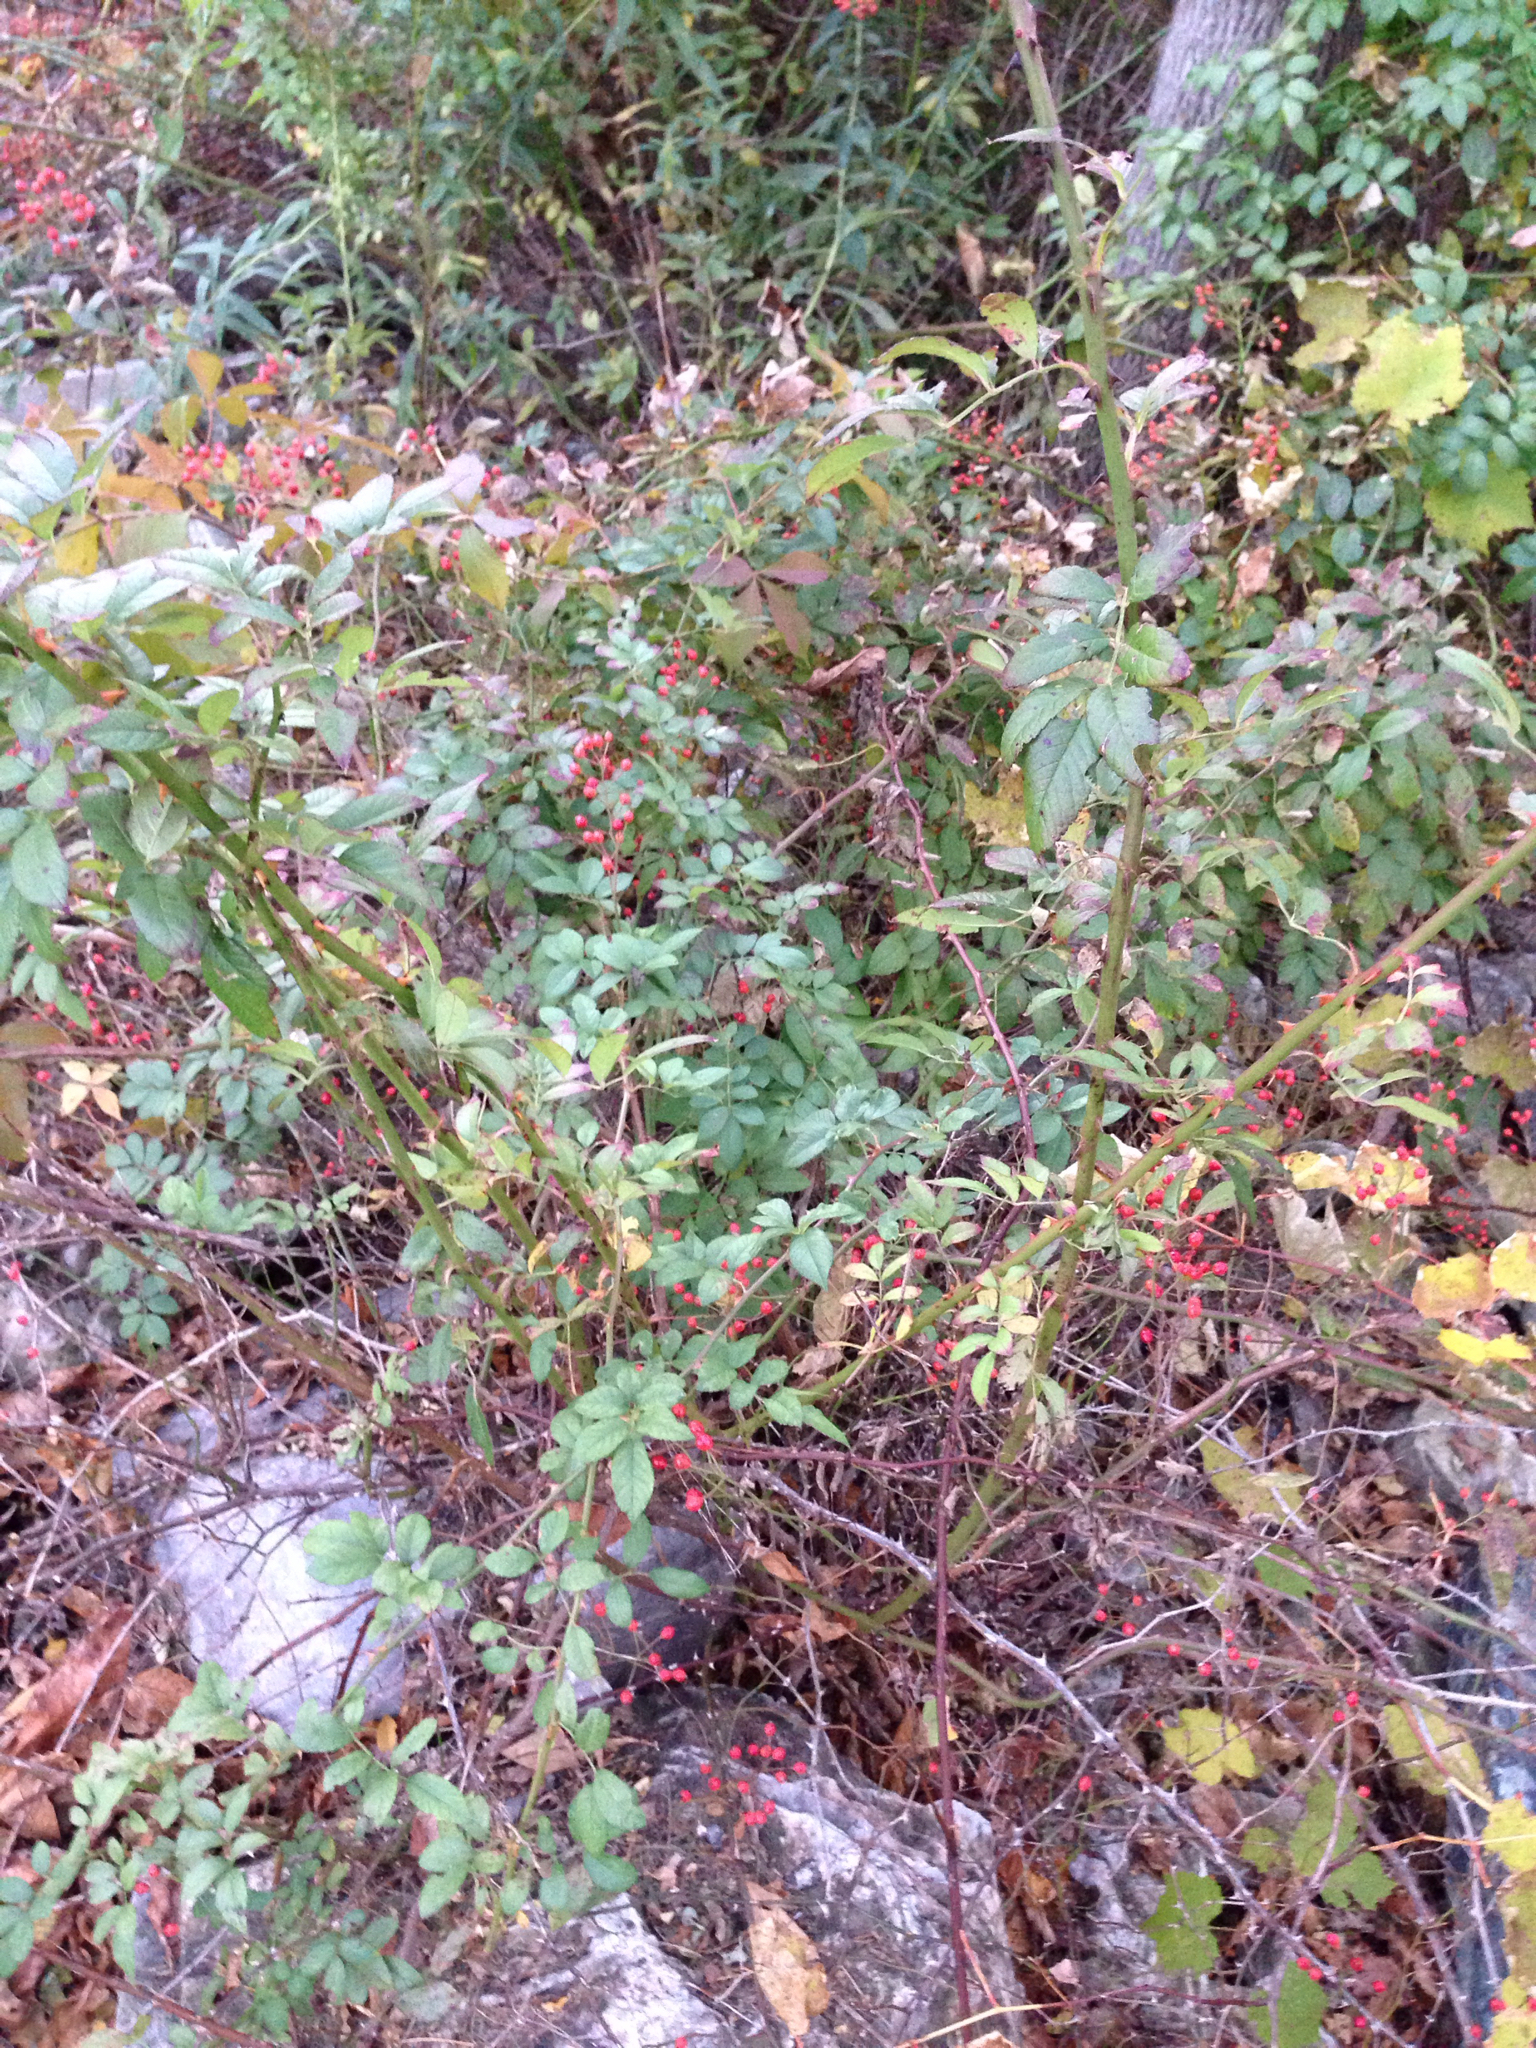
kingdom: Plantae
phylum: Tracheophyta
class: Magnoliopsida
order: Rosales
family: Rosaceae
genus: Rosa
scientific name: Rosa multiflora
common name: Multiflora rose
